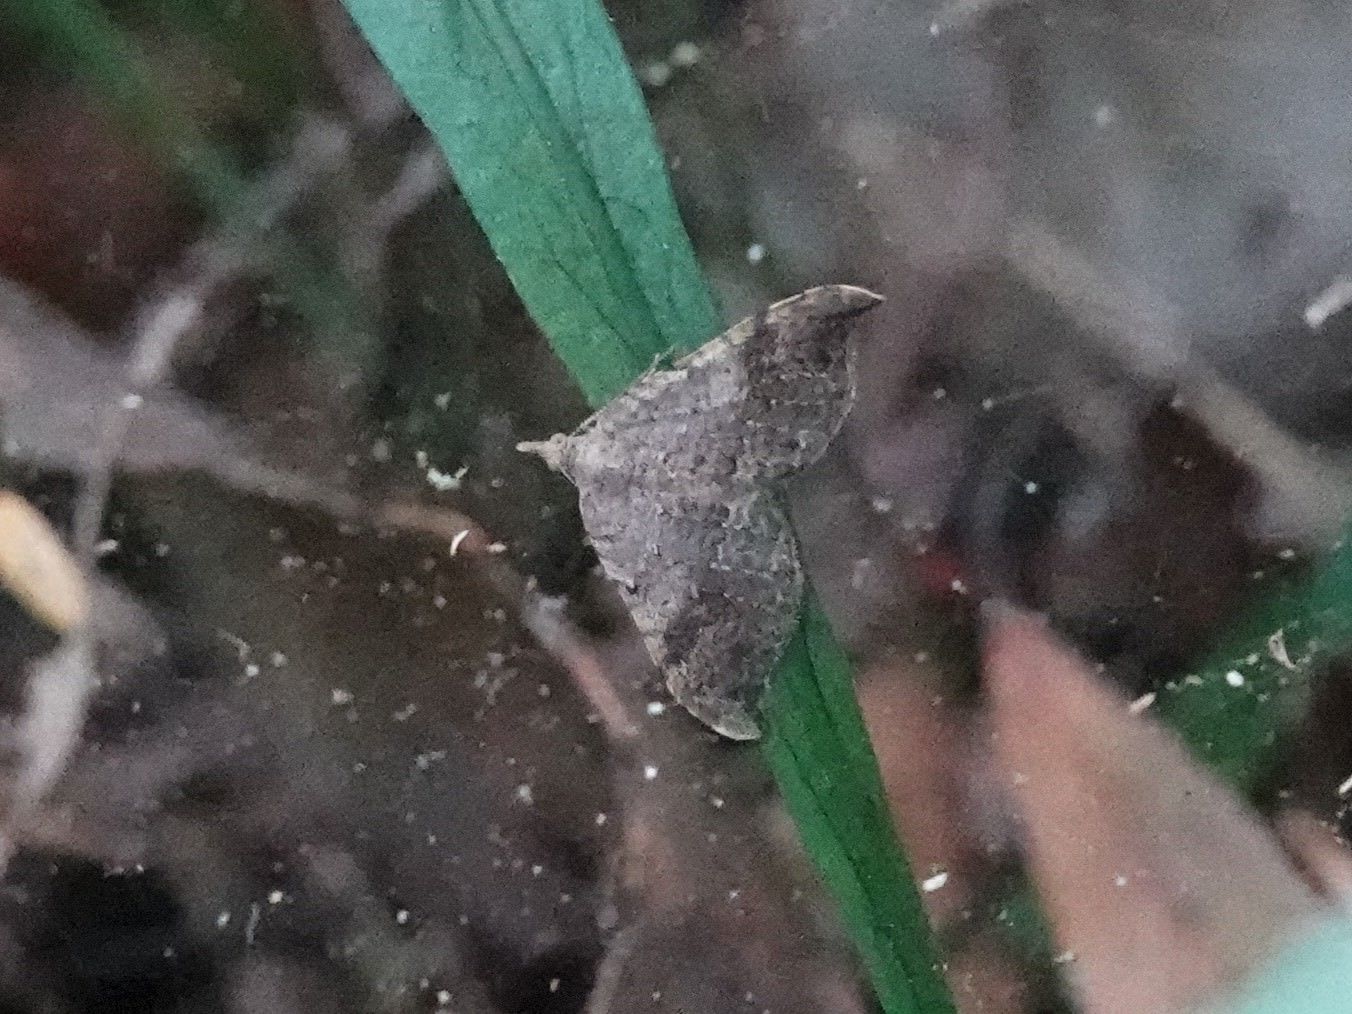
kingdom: Animalia
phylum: Arthropoda
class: Insecta
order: Lepidoptera
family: Geometridae
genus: Homodotis
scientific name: Homodotis megaspilata
